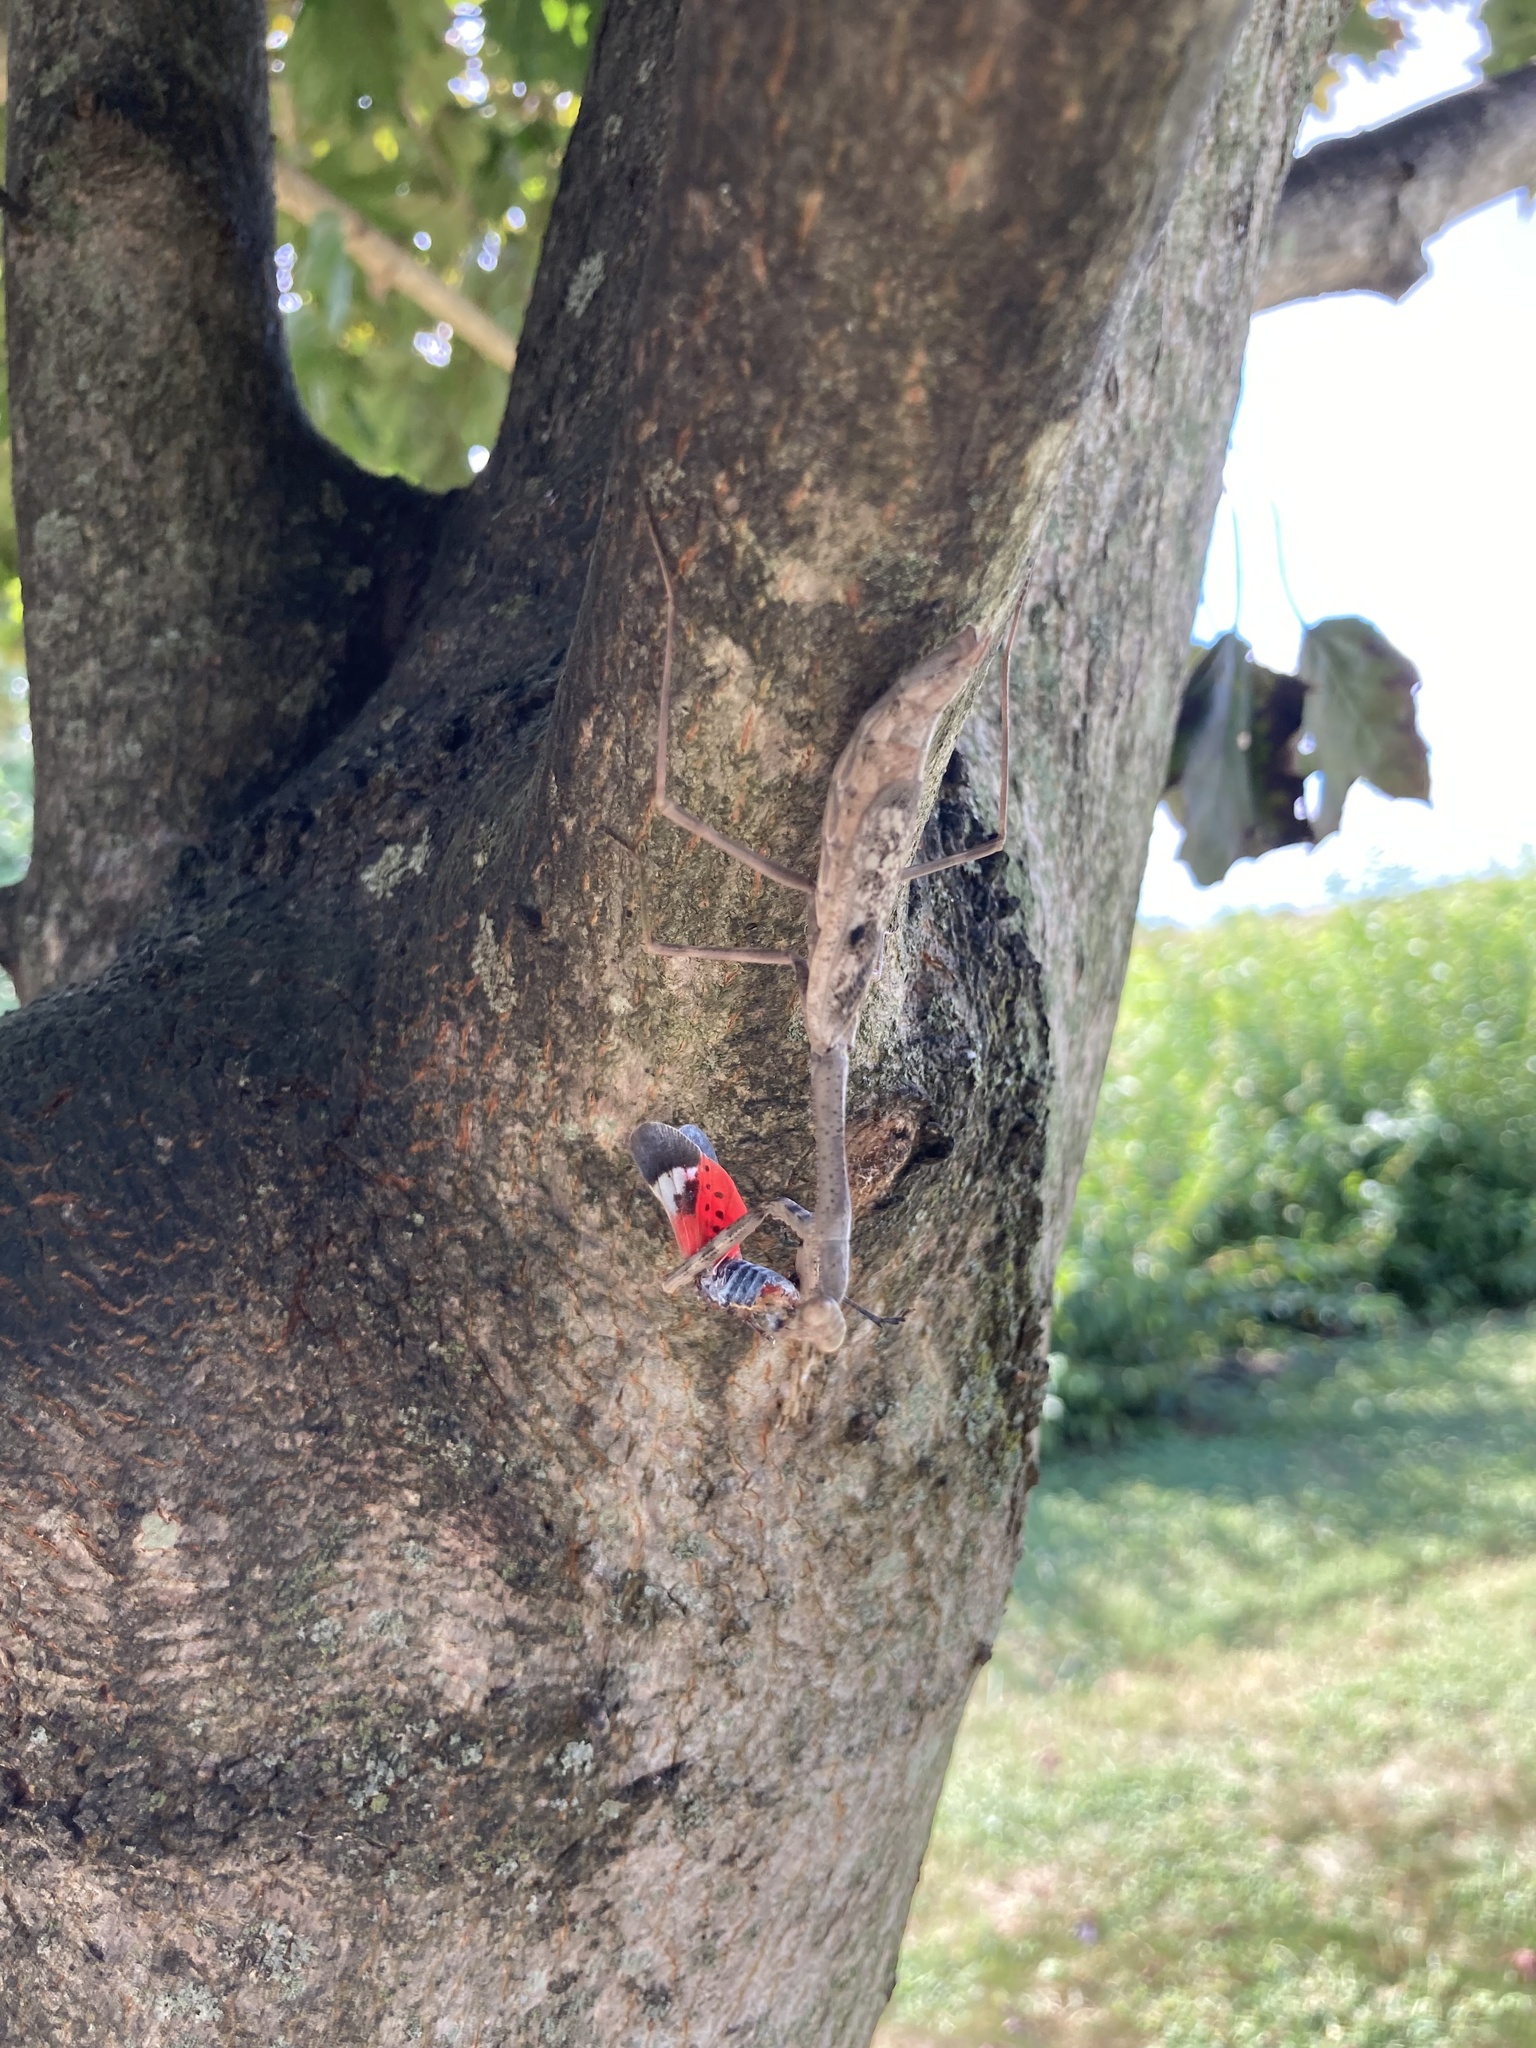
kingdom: Animalia
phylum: Arthropoda
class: Insecta
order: Hemiptera
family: Fulgoridae
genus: Lycorma
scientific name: Lycorma delicatula
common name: Spotted lanternfly
